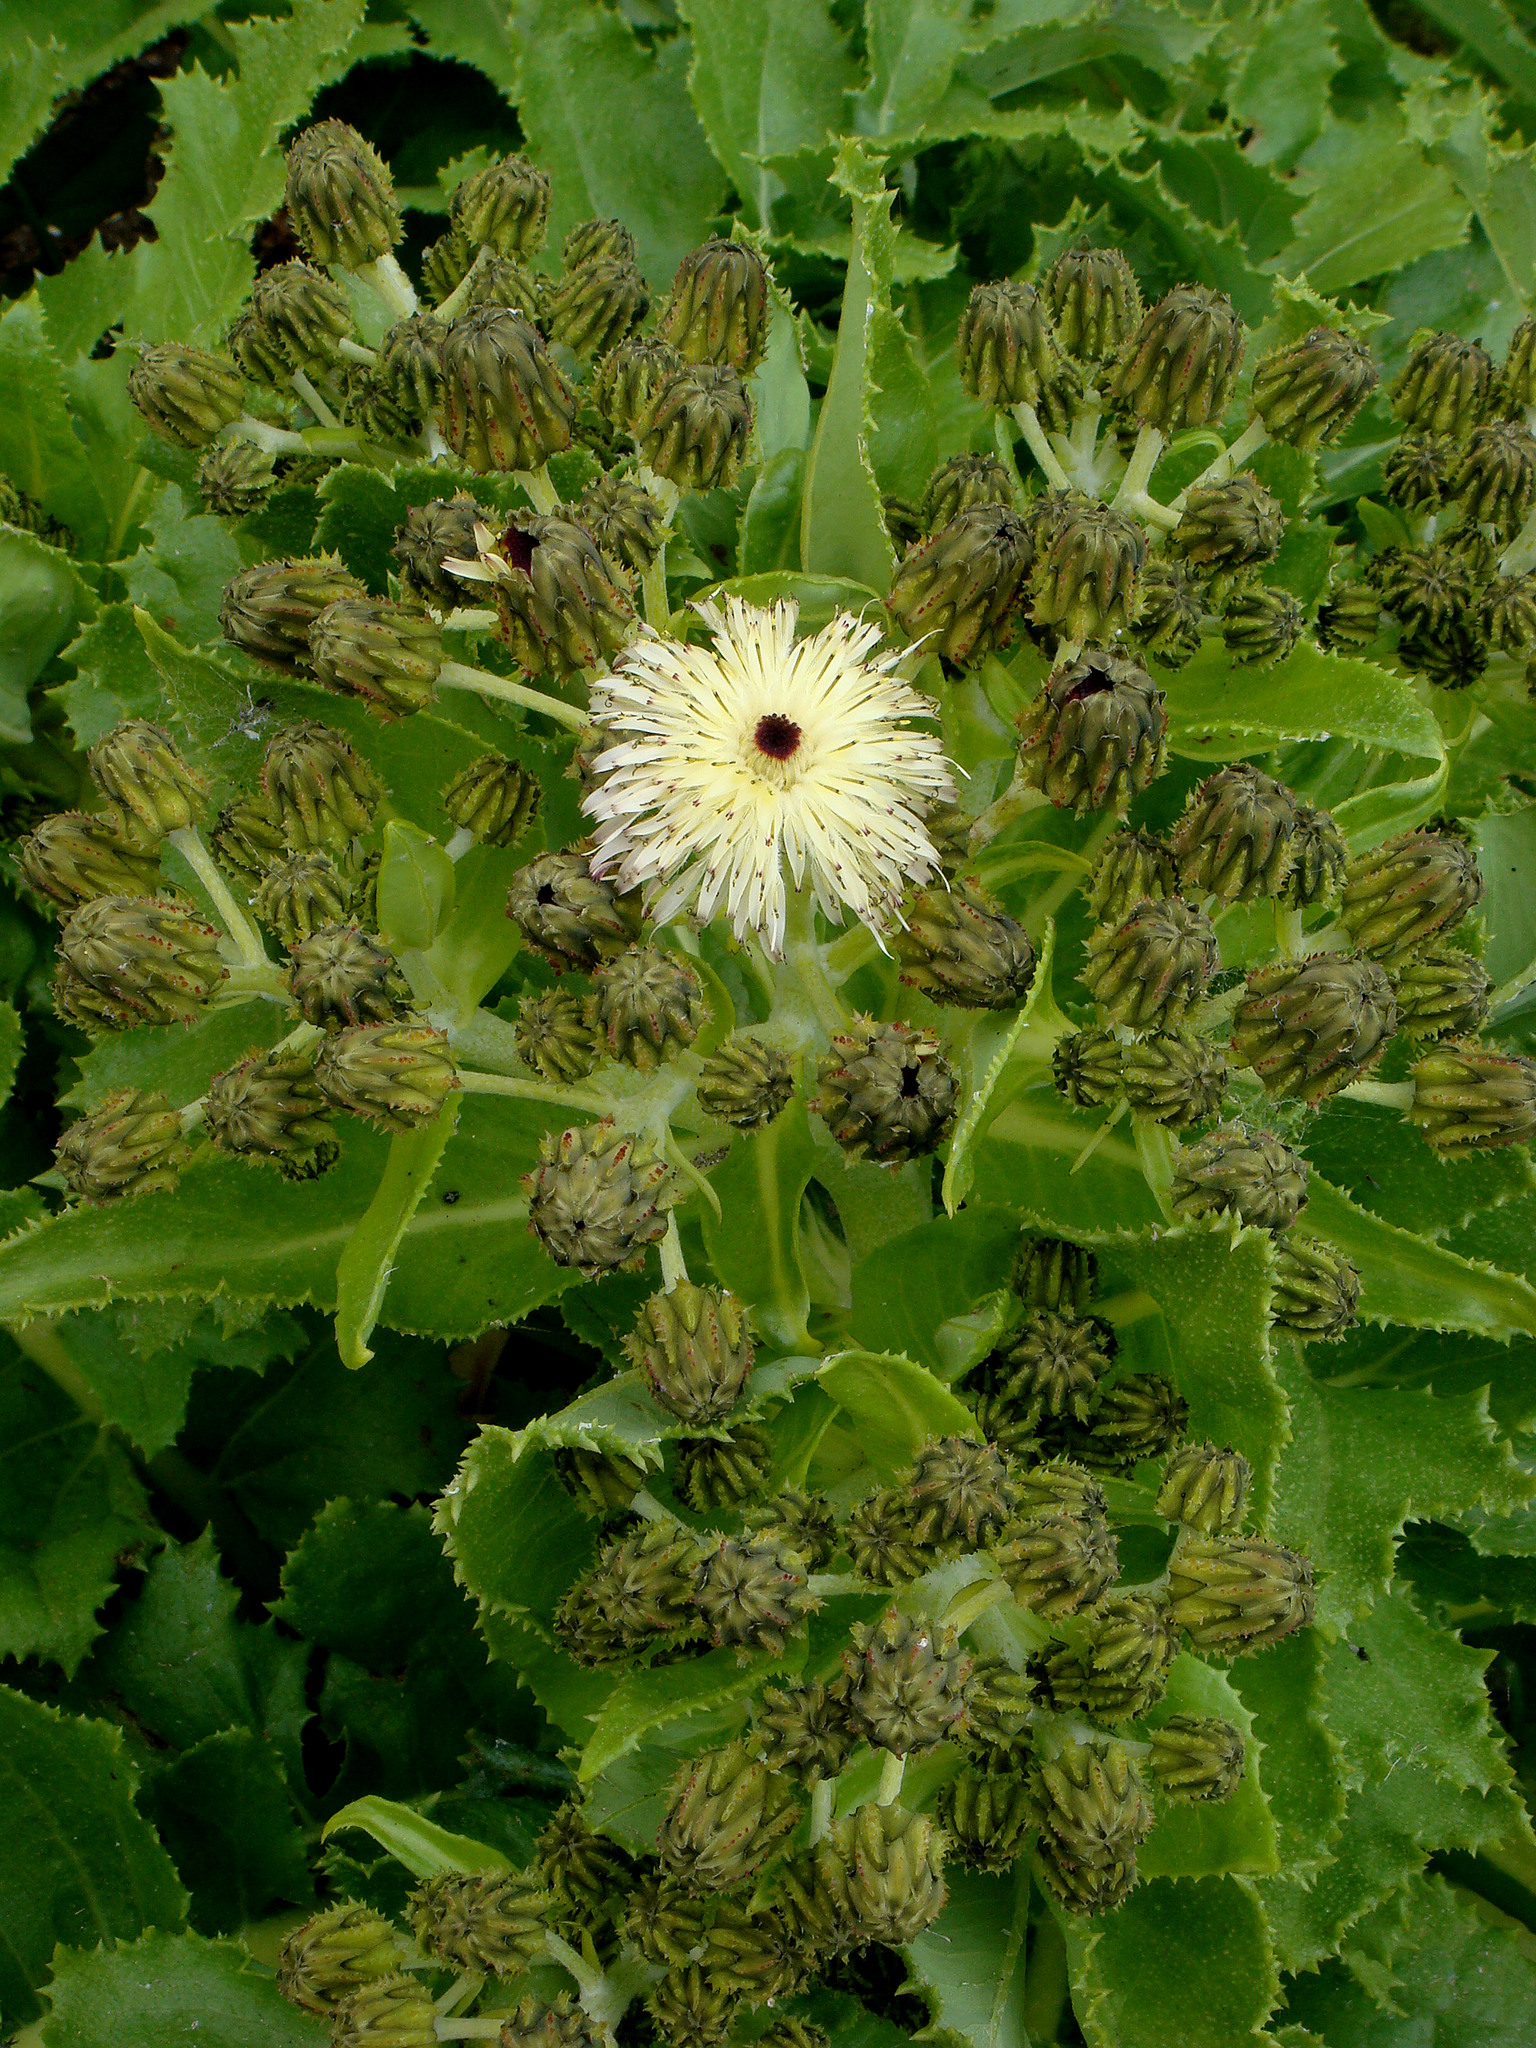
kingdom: Plantae
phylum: Tracheophyta
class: Magnoliopsida
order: Asterales
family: Asteraceae
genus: Sonchus
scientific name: Sonchus grandifolius
